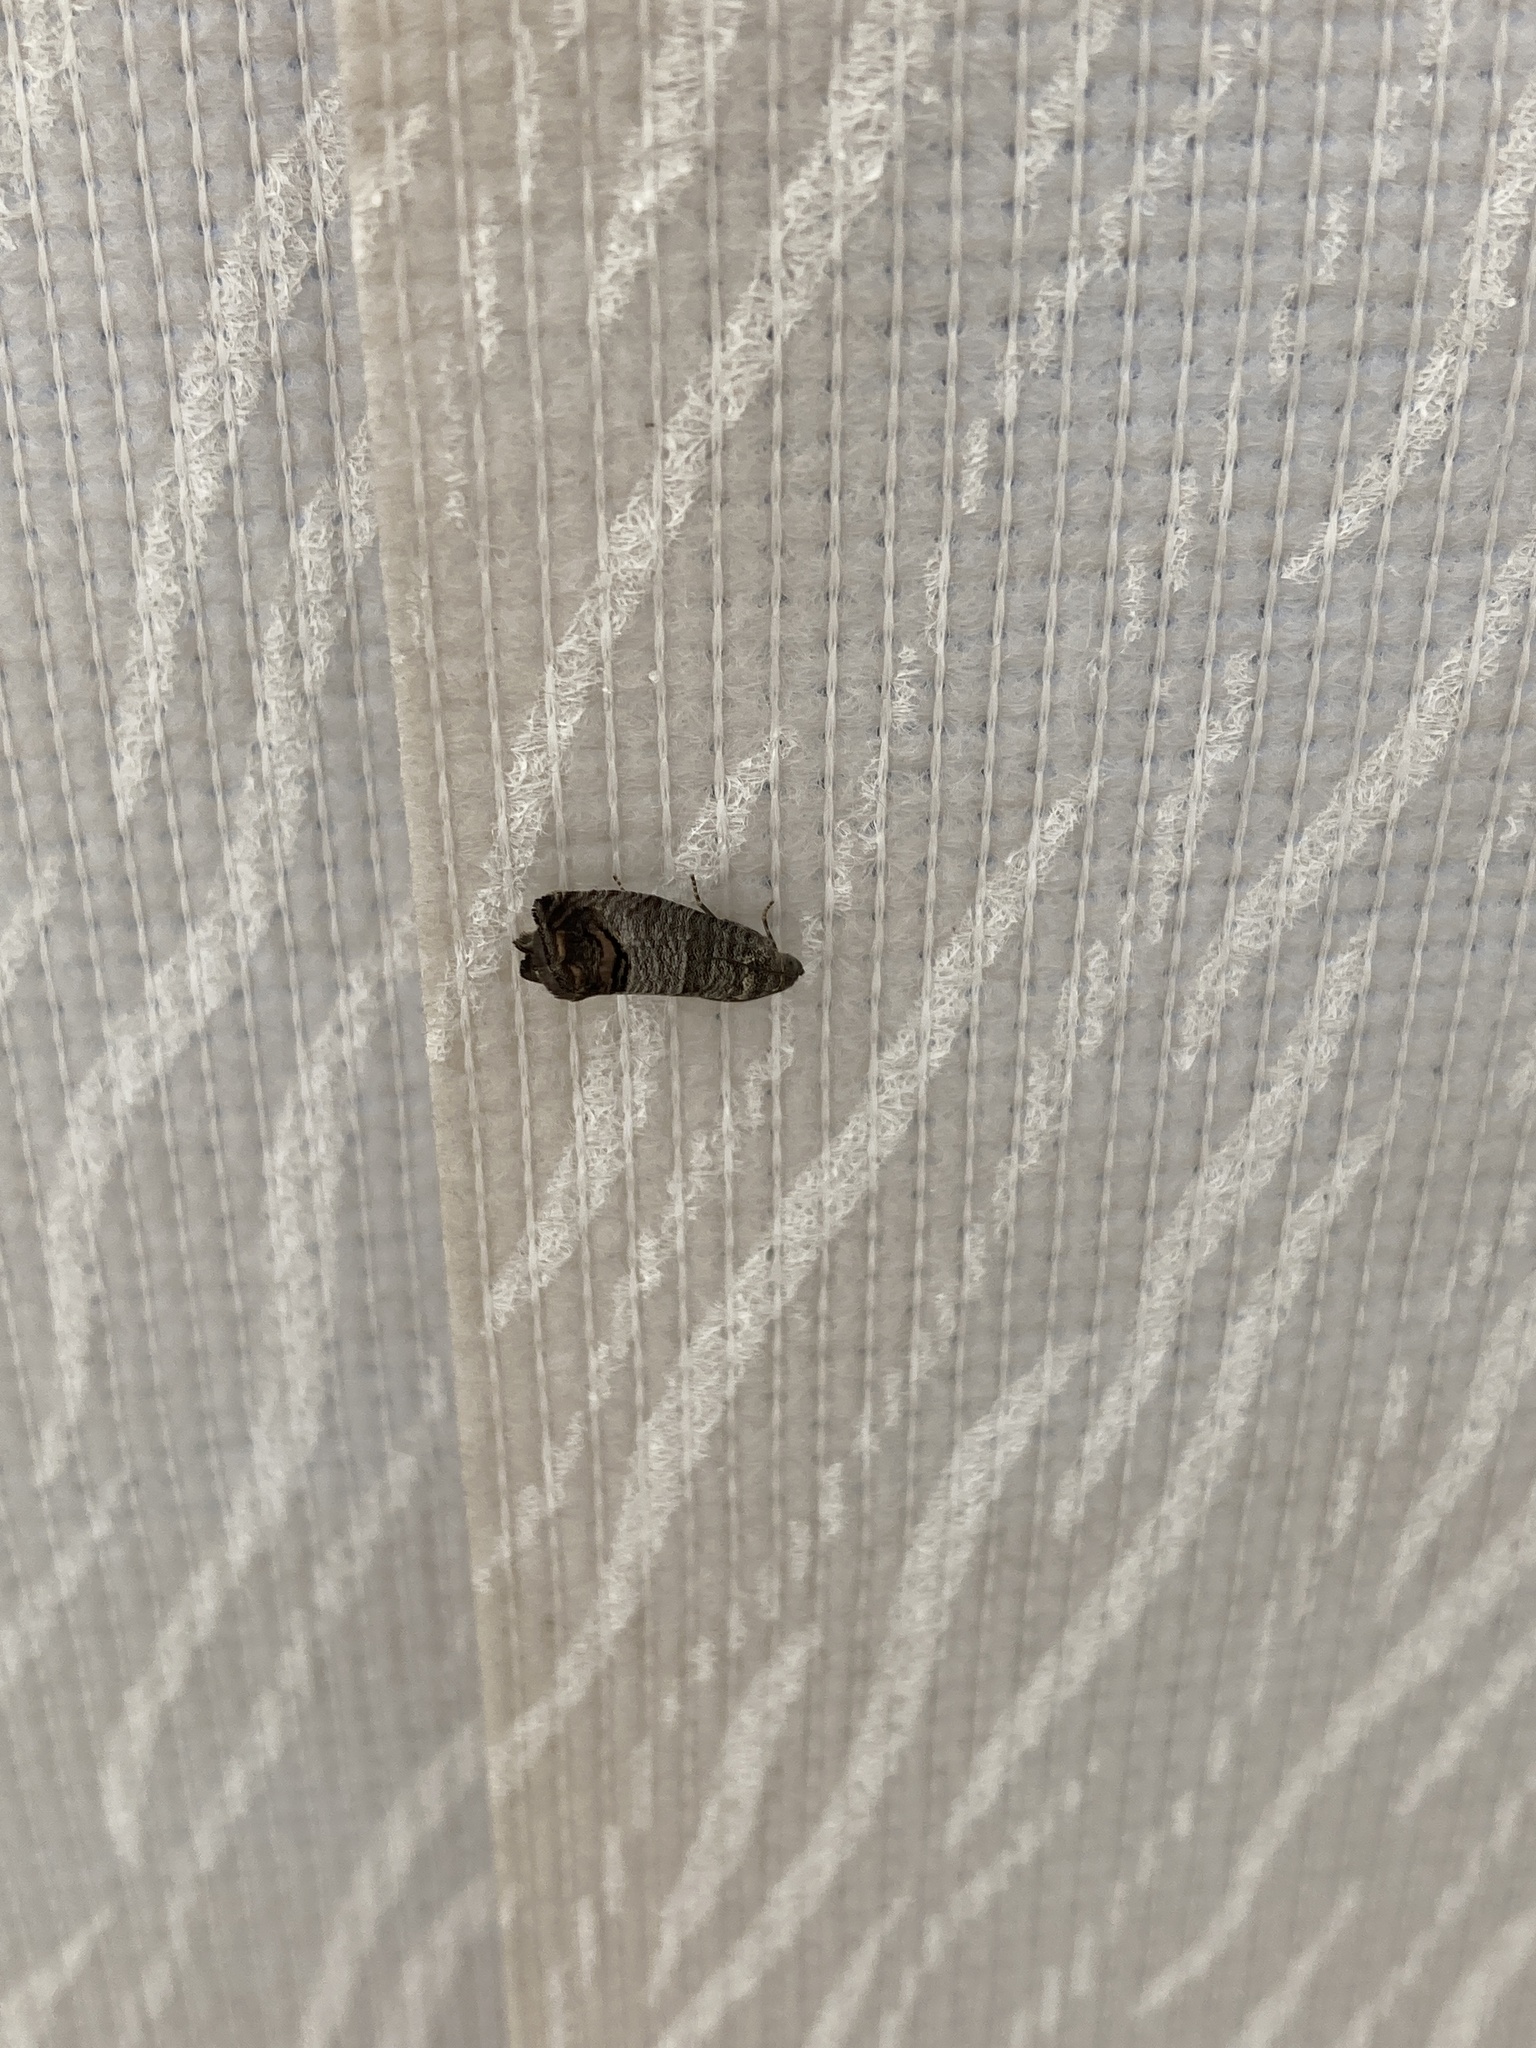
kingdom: Animalia
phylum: Arthropoda
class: Insecta
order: Lepidoptera
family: Tortricidae
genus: Cydia
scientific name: Cydia pomonella
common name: Codling moth
